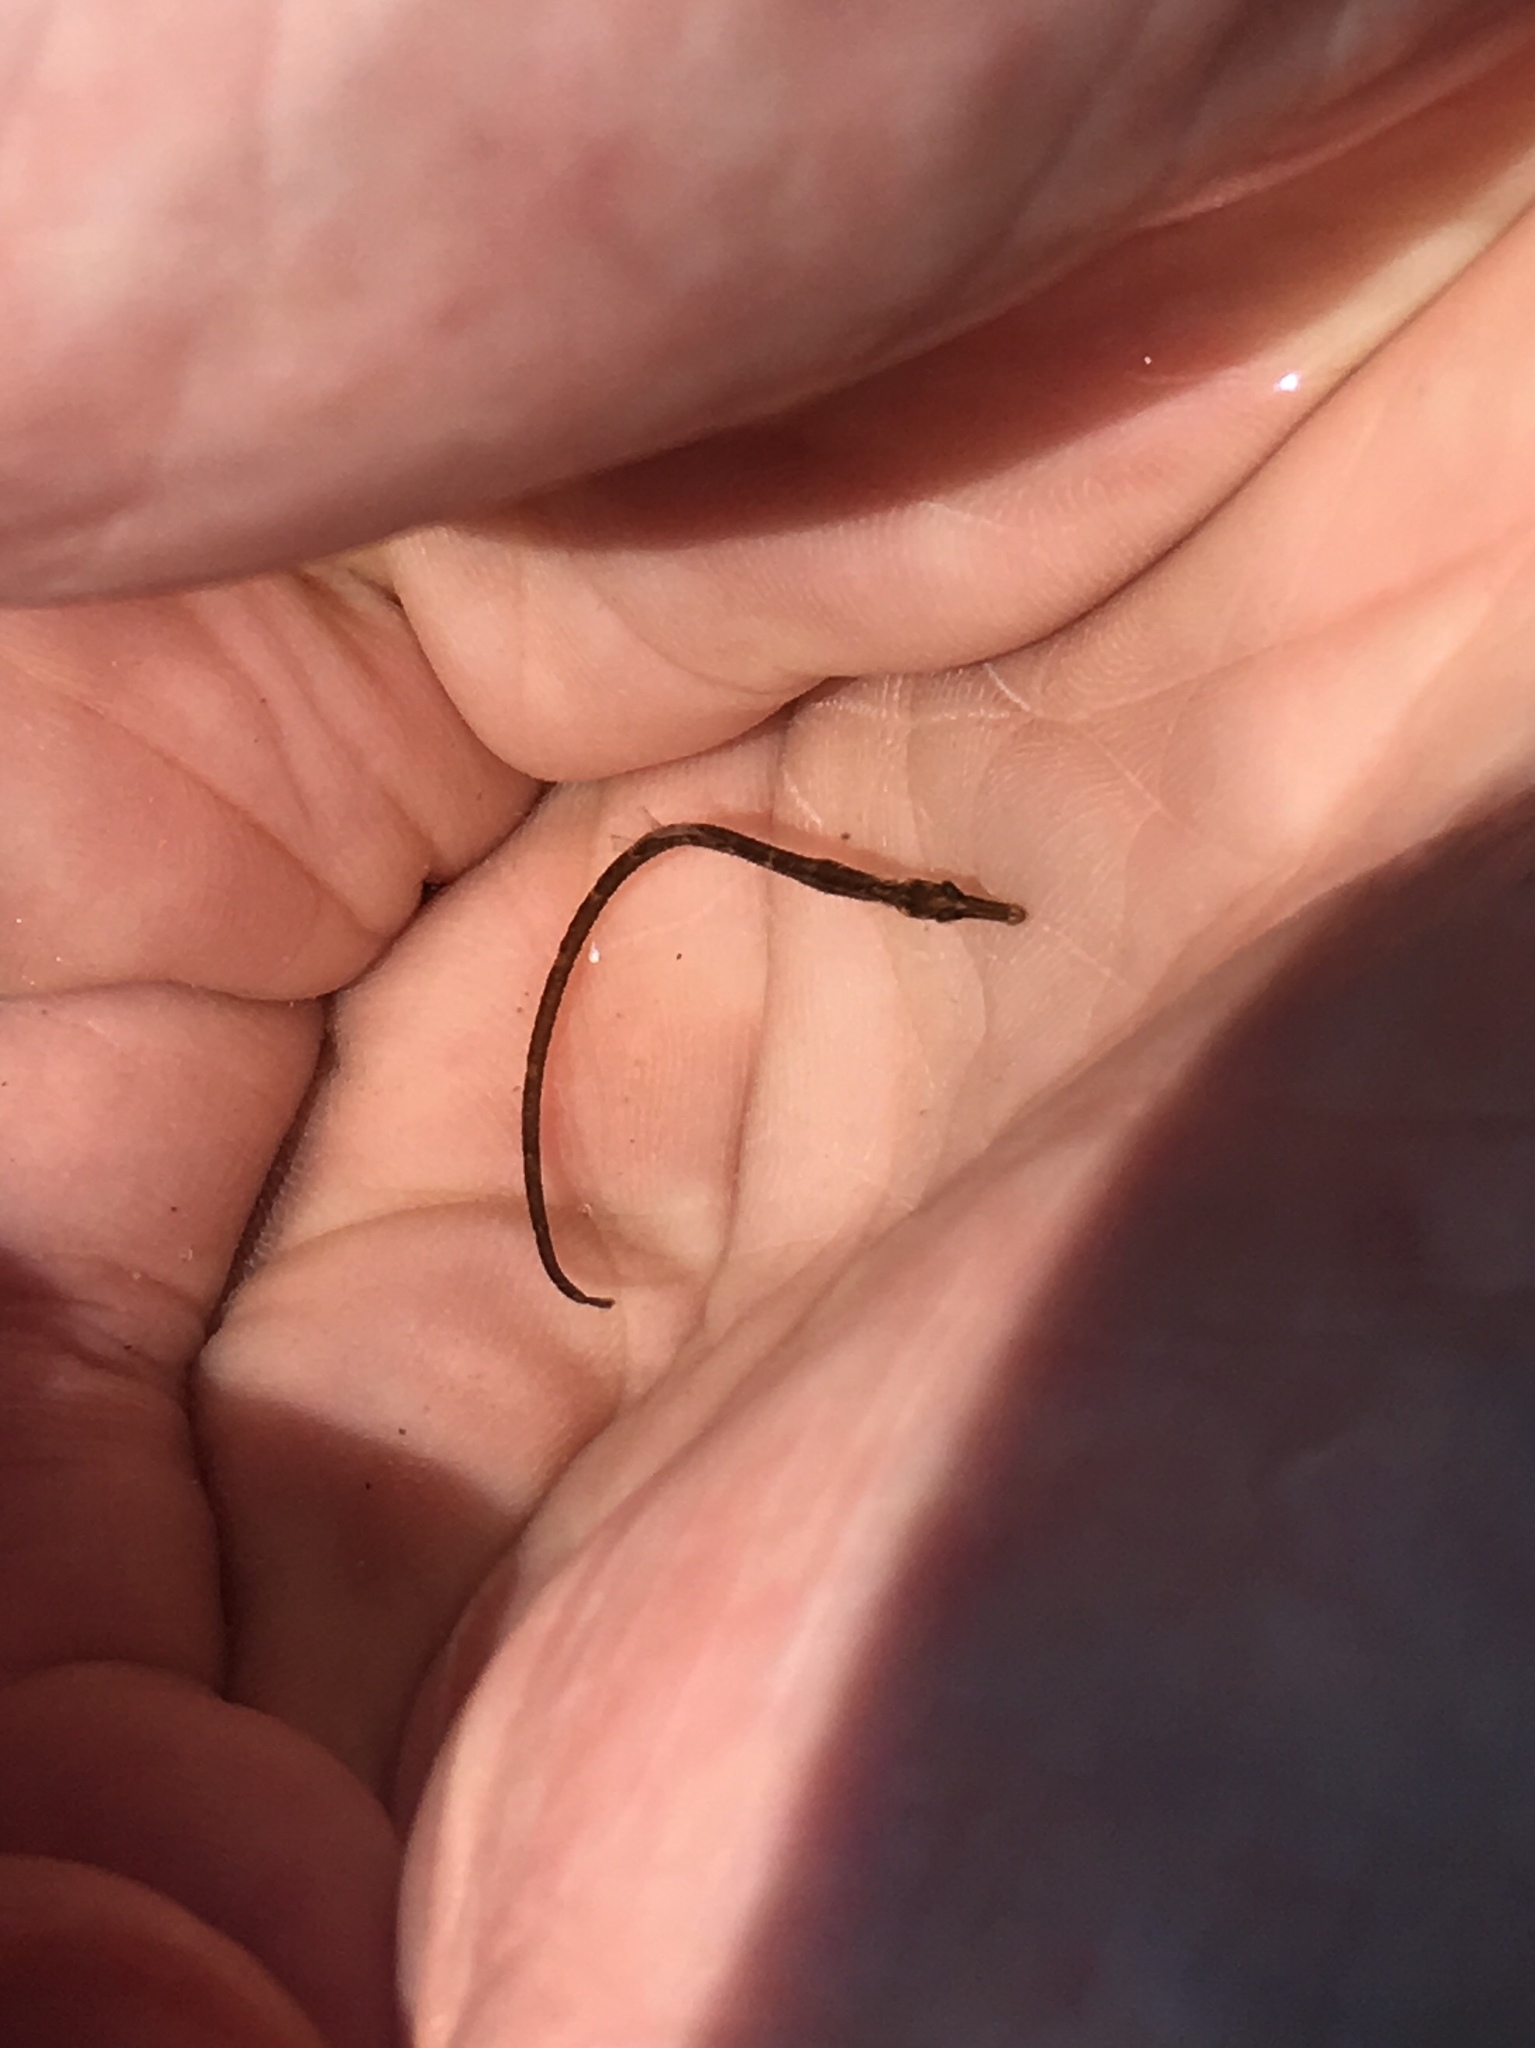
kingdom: Animalia
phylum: Chordata
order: Syngnathiformes
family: Syngnathidae
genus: Syngnathus
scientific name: Syngnathus fuscus
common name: Northern pipefish
